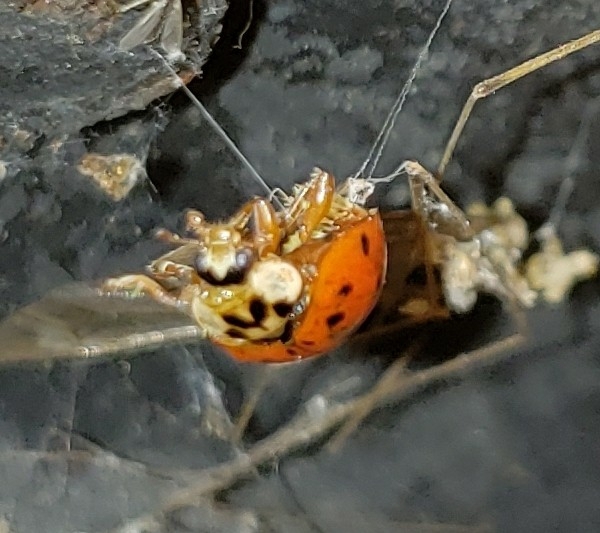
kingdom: Fungi
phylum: Ascomycota
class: Laboulbeniomycetes
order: Laboulbeniales
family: Laboulbeniaceae
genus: Hesperomyces
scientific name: Hesperomyces harmoniae
